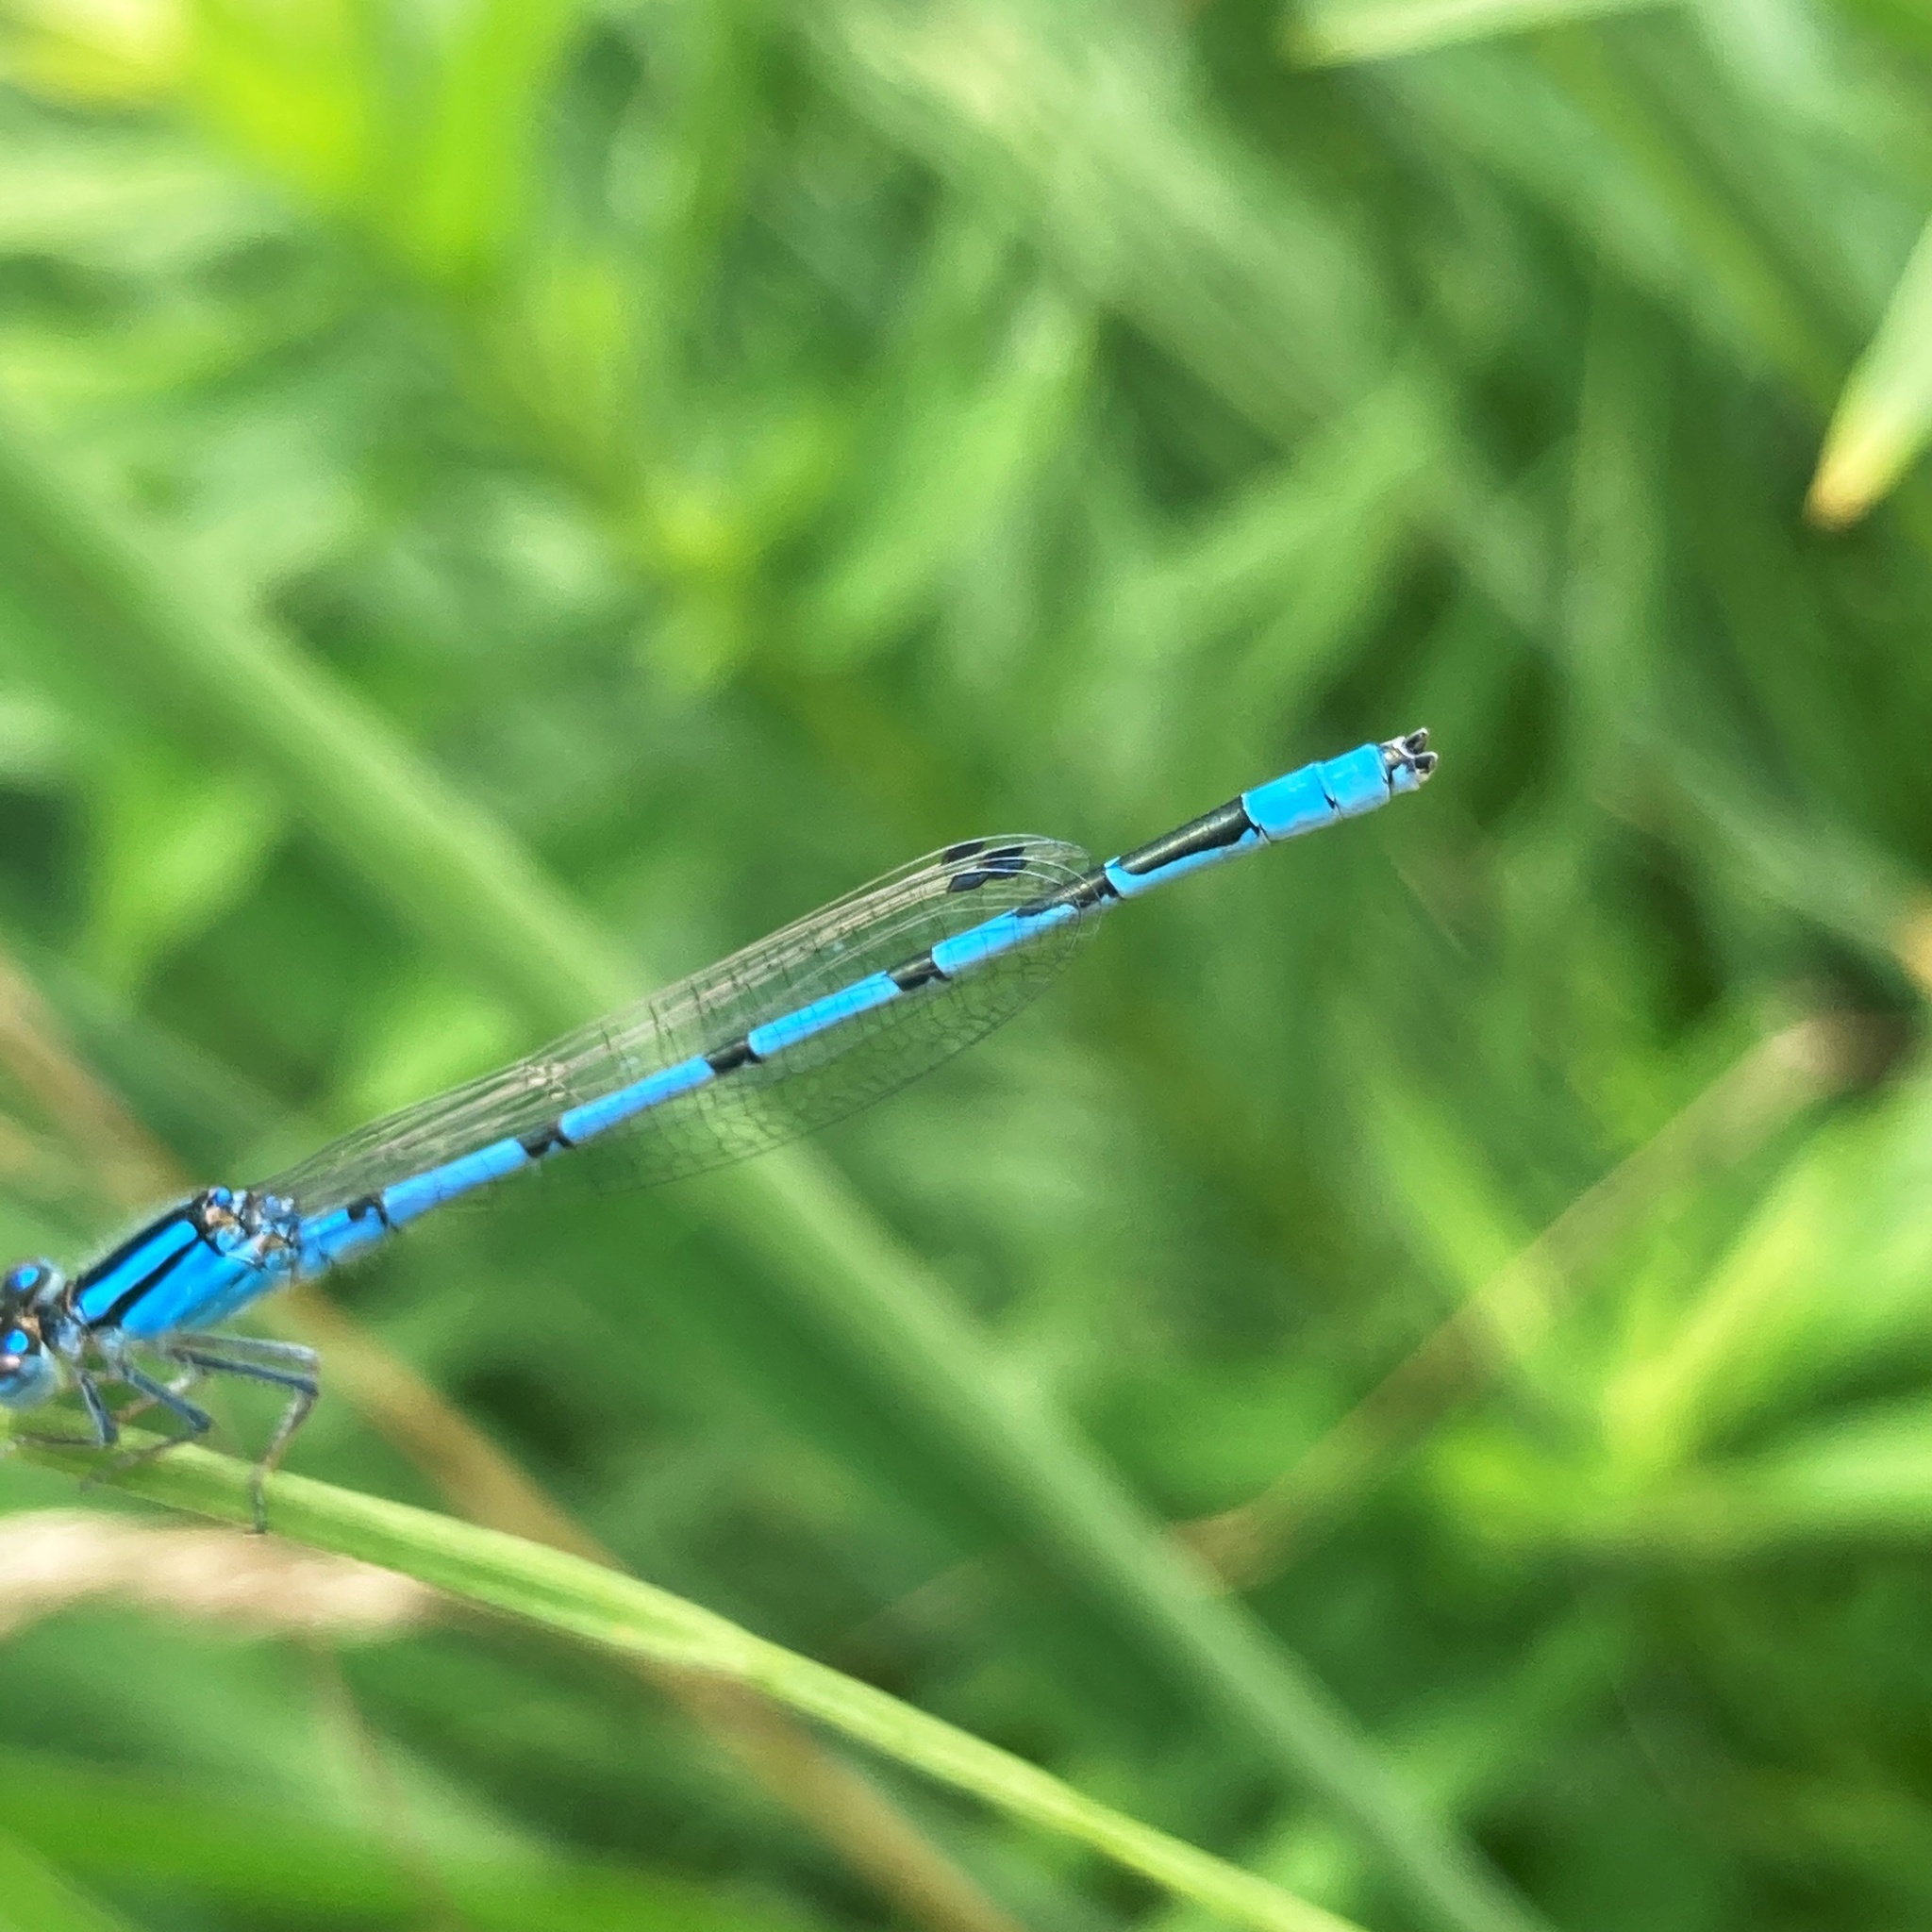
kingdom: Animalia
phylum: Arthropoda
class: Insecta
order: Odonata
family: Coenagrionidae
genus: Enallagma
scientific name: Enallagma civile
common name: Damselfly
